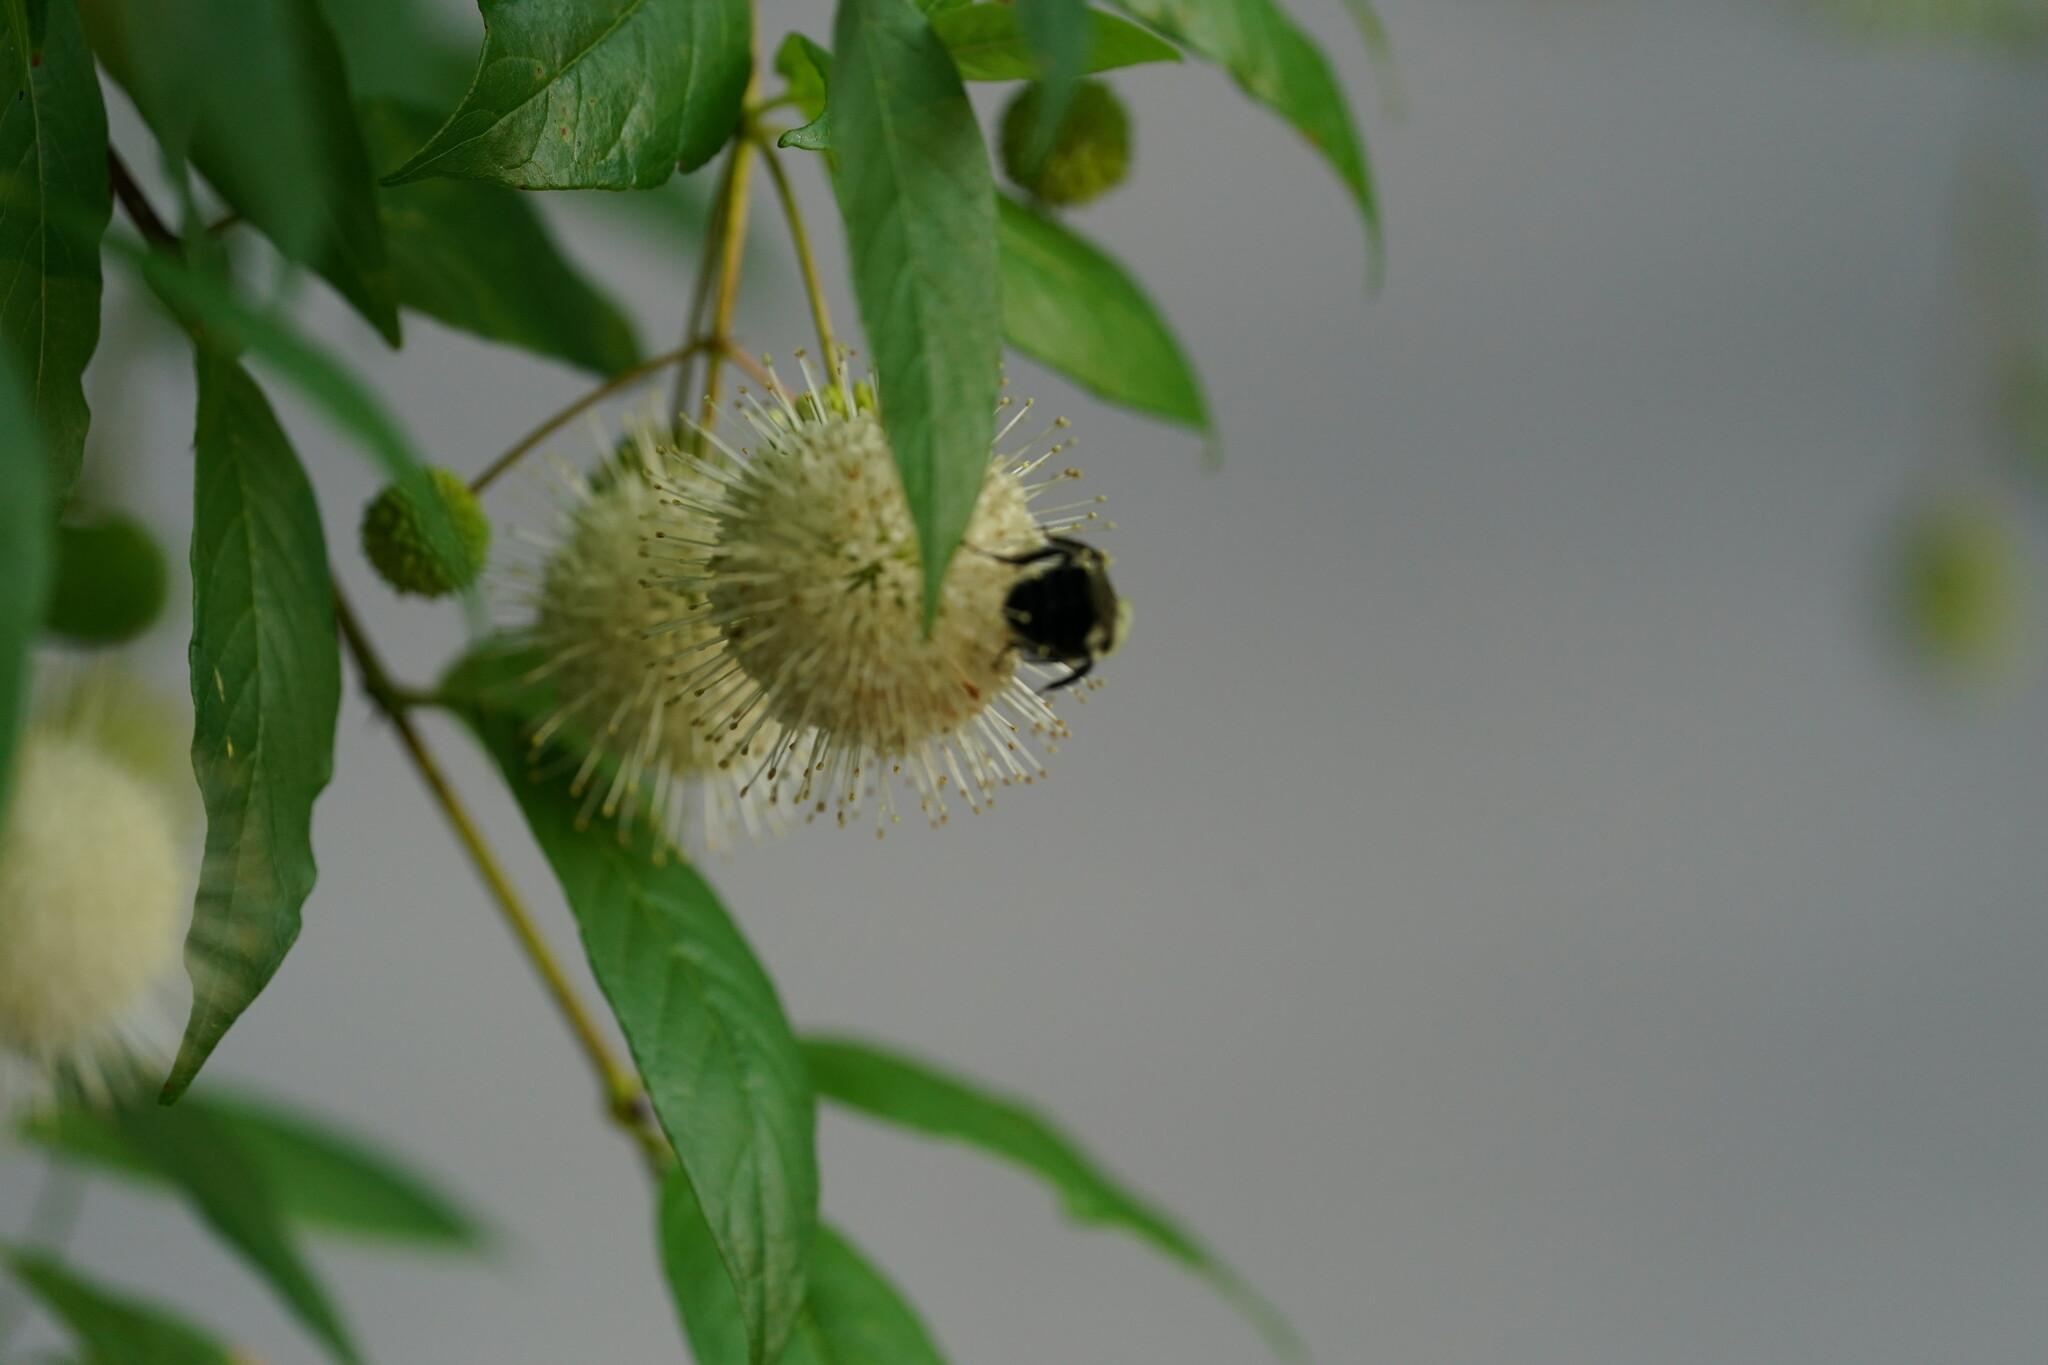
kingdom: Animalia
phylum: Arthropoda
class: Insecta
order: Hymenoptera
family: Apidae
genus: Bombus
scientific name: Bombus impatiens
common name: Common eastern bumble bee
